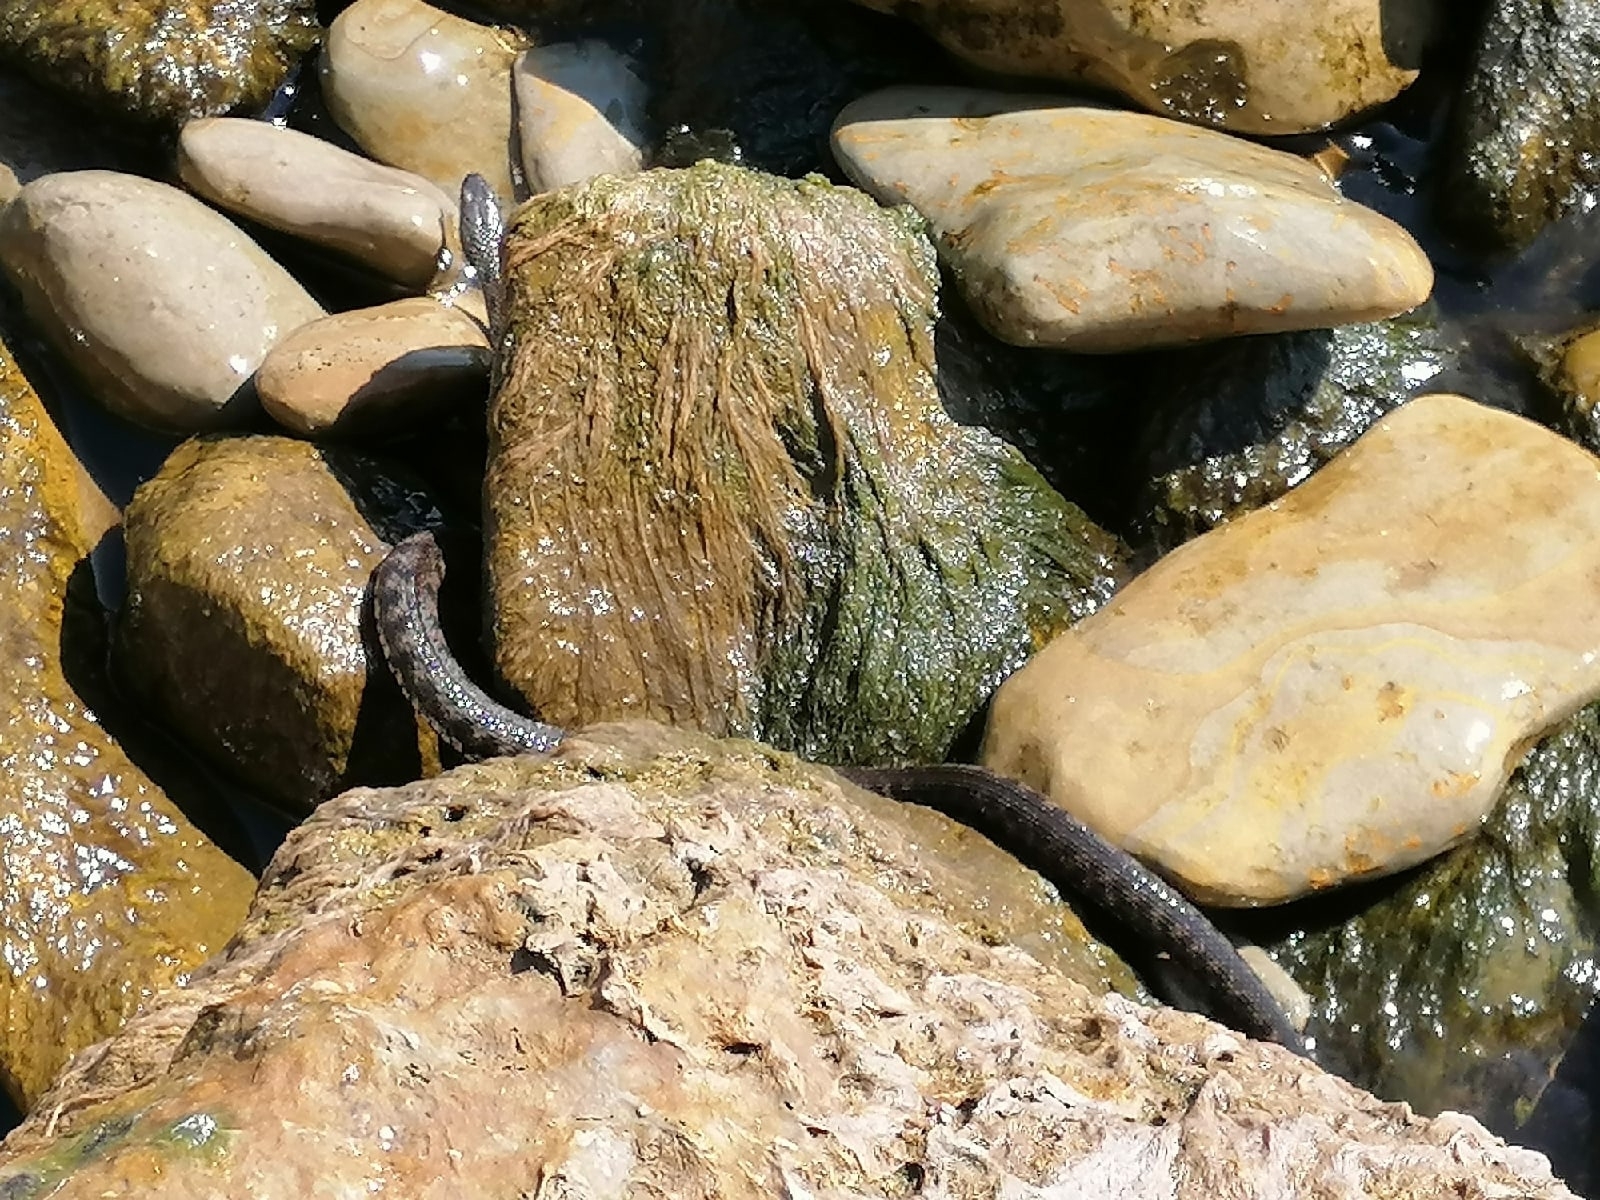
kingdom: Animalia
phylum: Chordata
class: Squamata
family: Colubridae
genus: Natrix
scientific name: Natrix tessellata
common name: Dice snake
